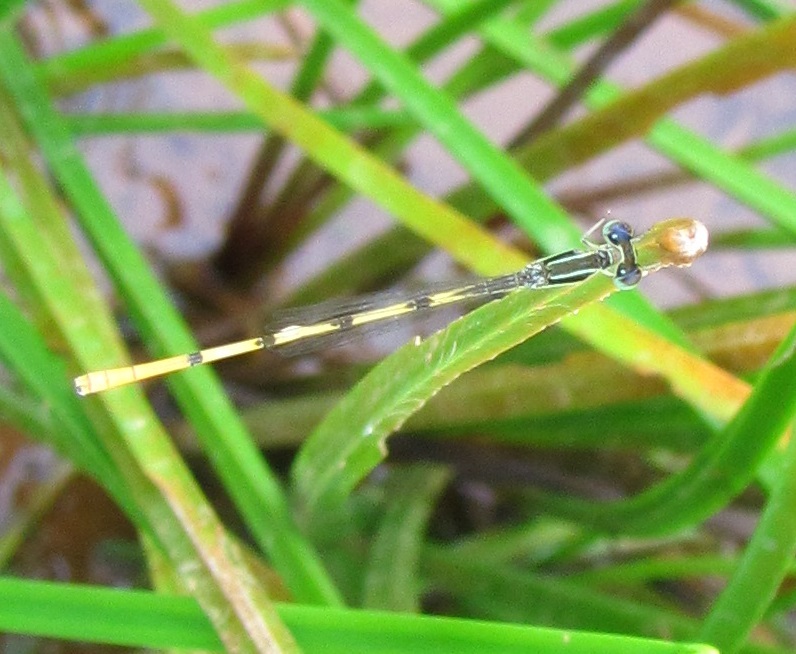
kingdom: Animalia
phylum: Arthropoda
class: Insecta
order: Odonata
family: Coenagrionidae
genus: Ischnura
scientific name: Ischnura hastata
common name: Citrine forktail
